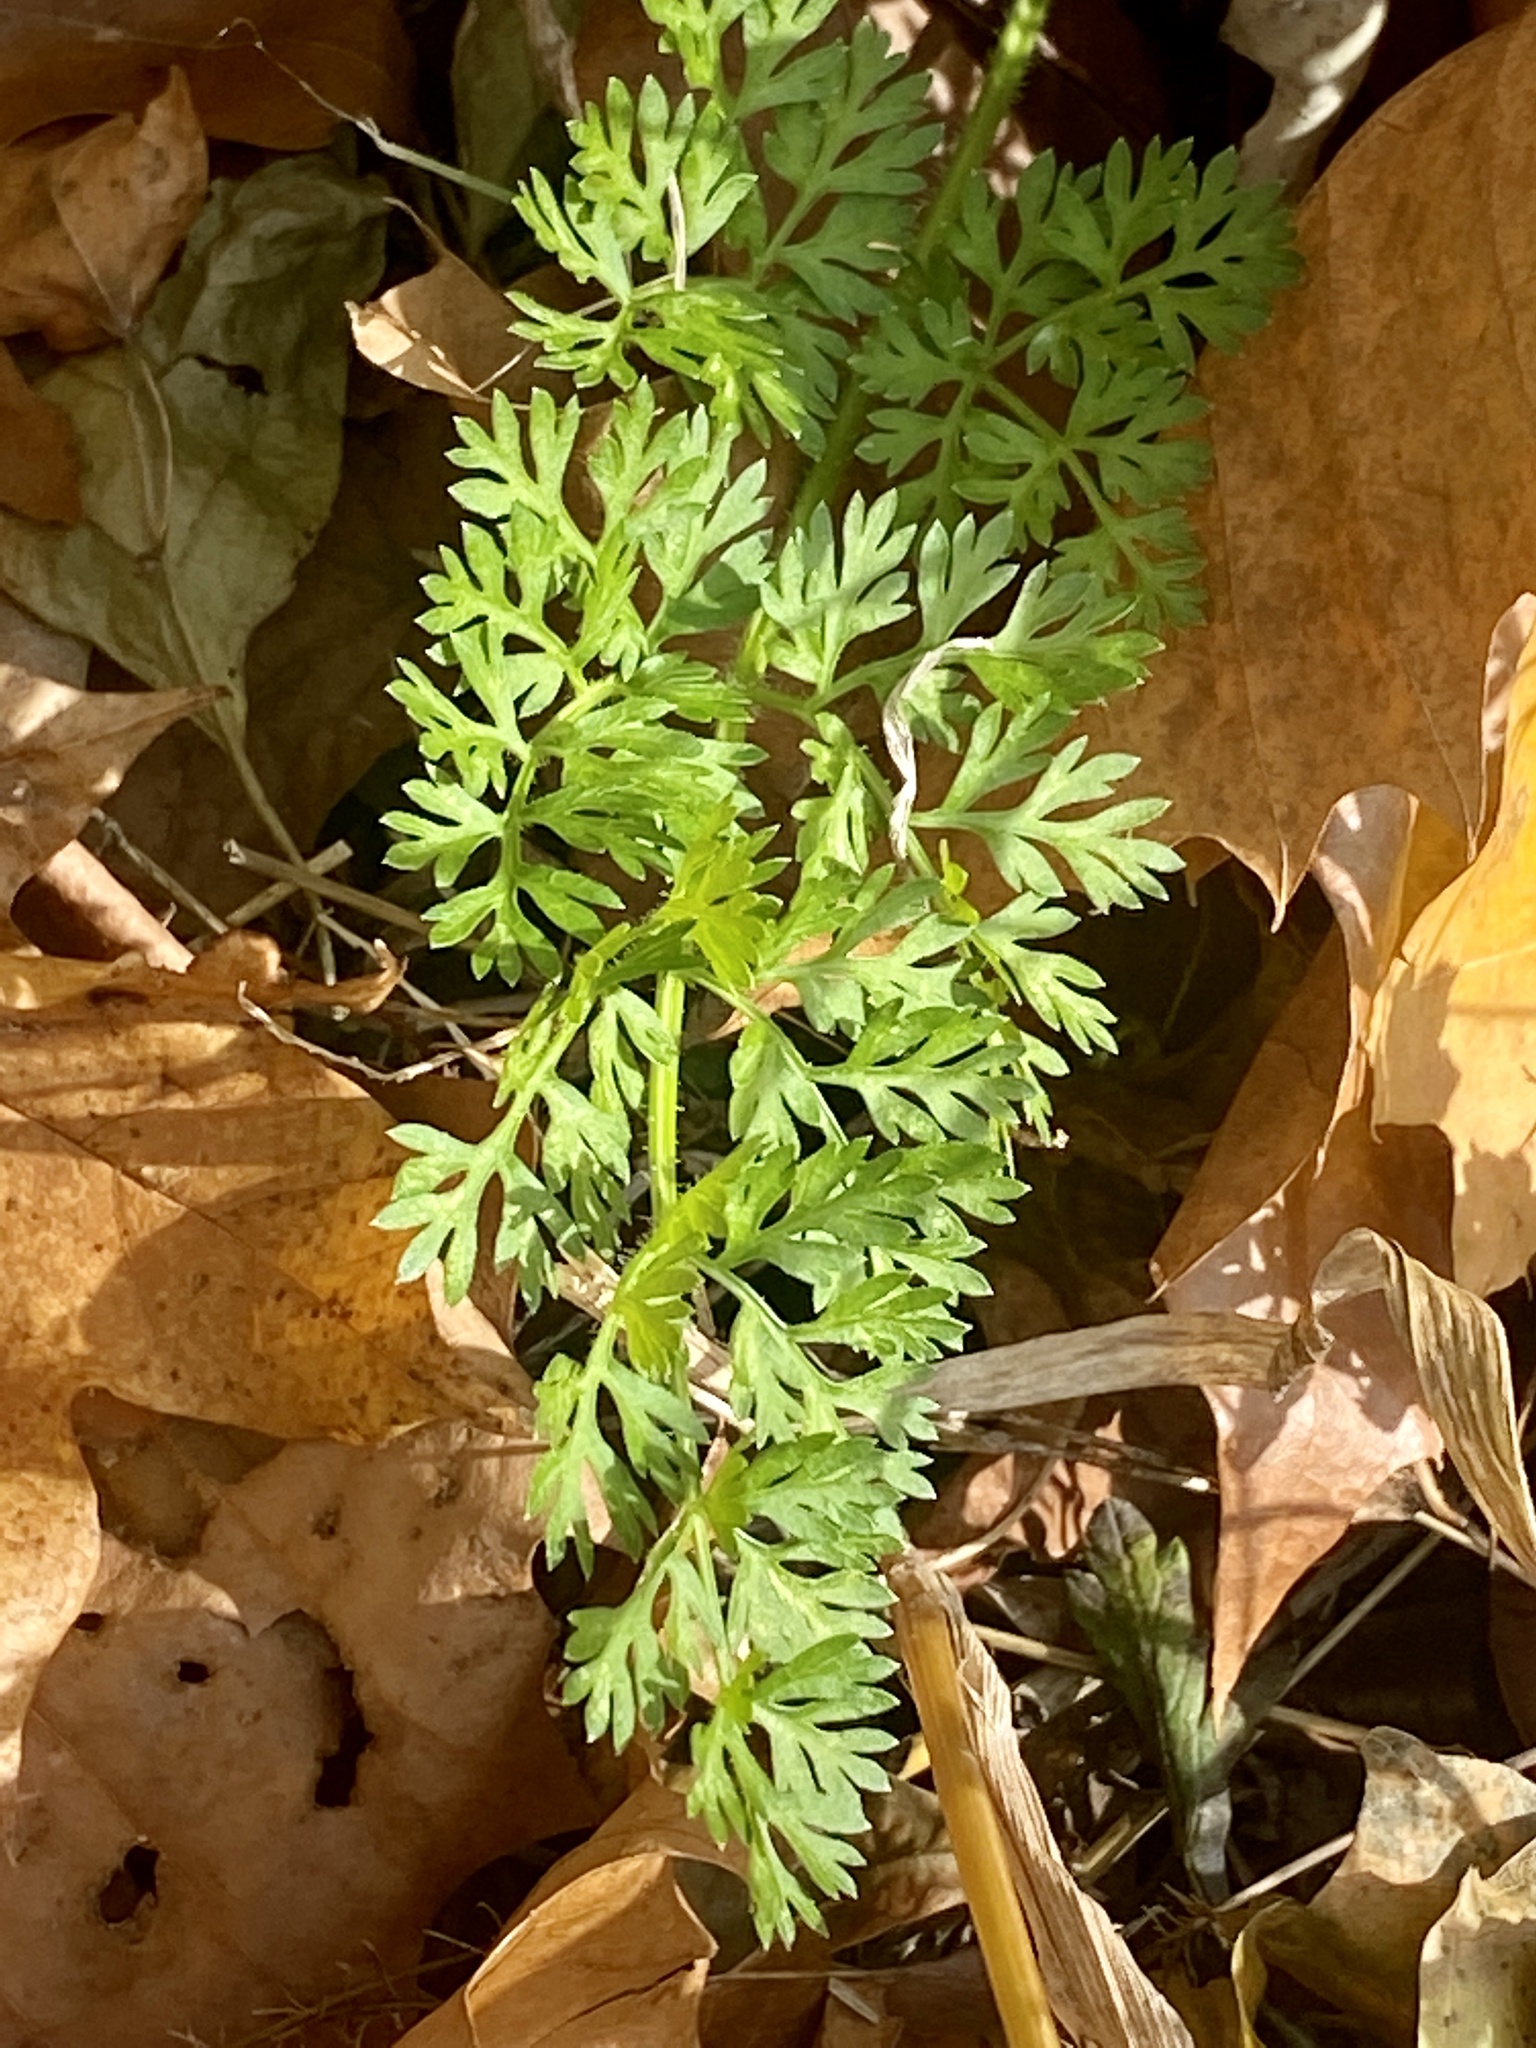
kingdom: Plantae
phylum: Tracheophyta
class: Magnoliopsida
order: Apiales
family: Apiaceae
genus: Daucus
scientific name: Daucus carota
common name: Wild carrot
